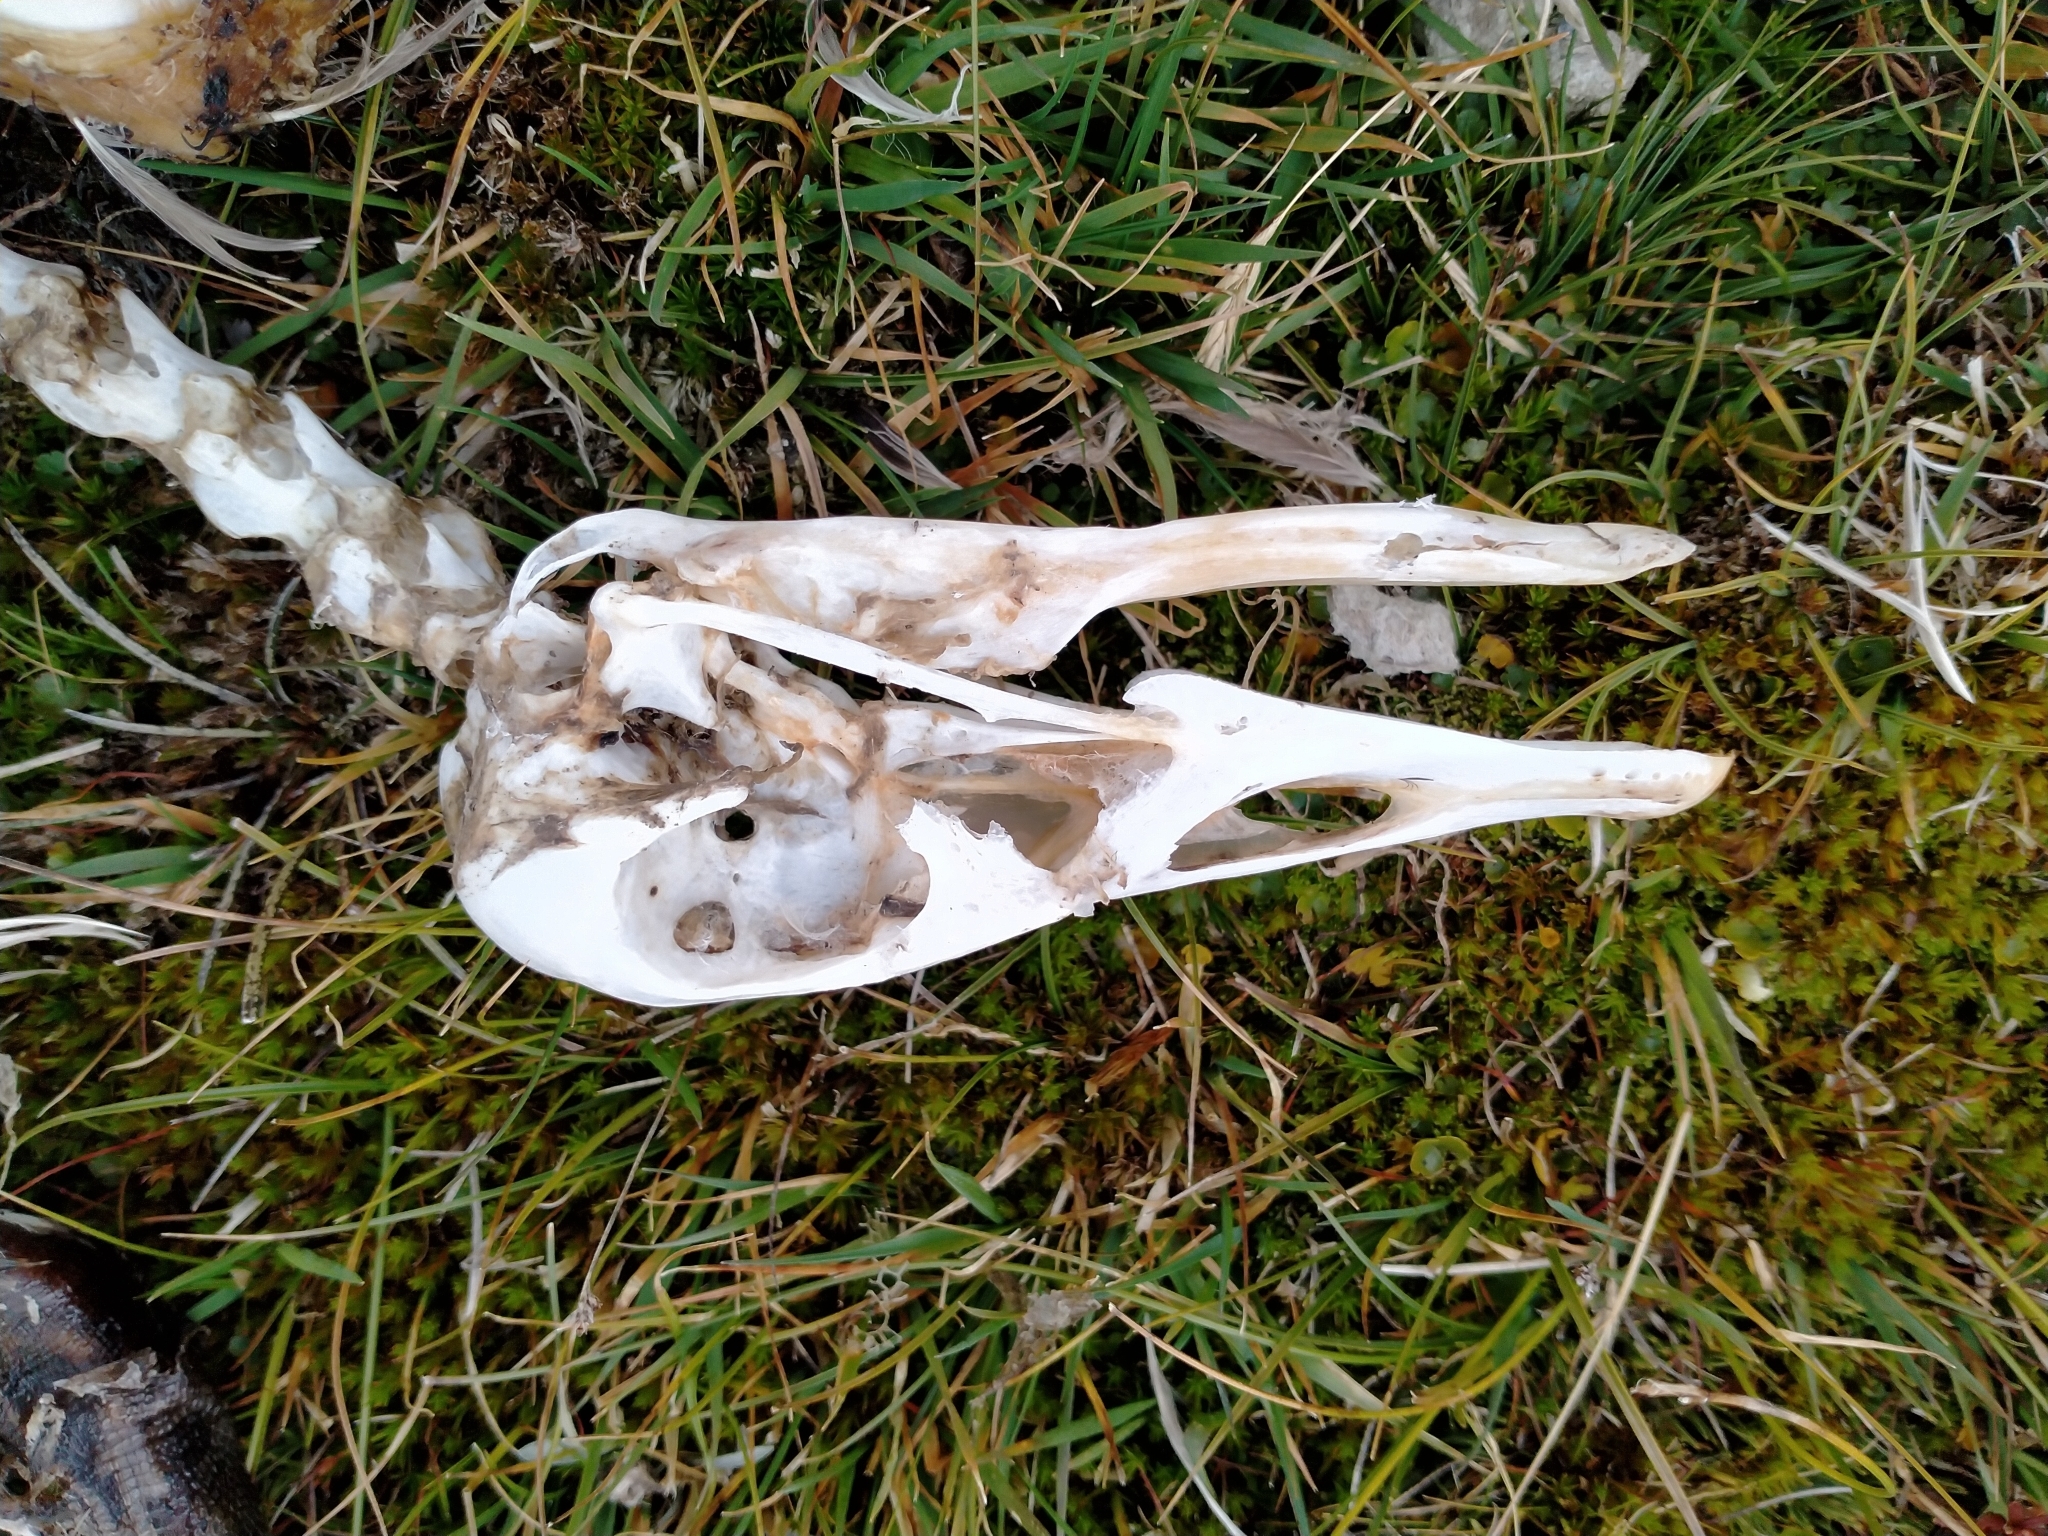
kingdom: Animalia
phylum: Chordata
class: Aves
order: Anseriformes
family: Anatidae
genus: Branta
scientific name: Branta canadensis
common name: Canada goose
